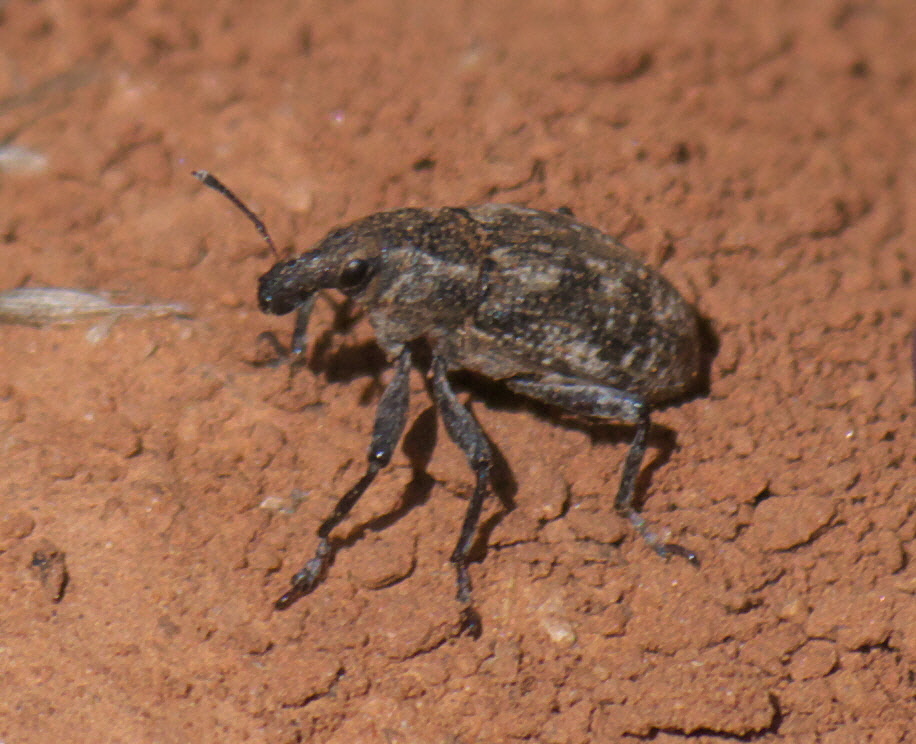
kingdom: Animalia
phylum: Arthropoda
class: Insecta
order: Coleoptera
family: Curculionidae
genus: Apleurus
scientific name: Apleurus lutulentus
